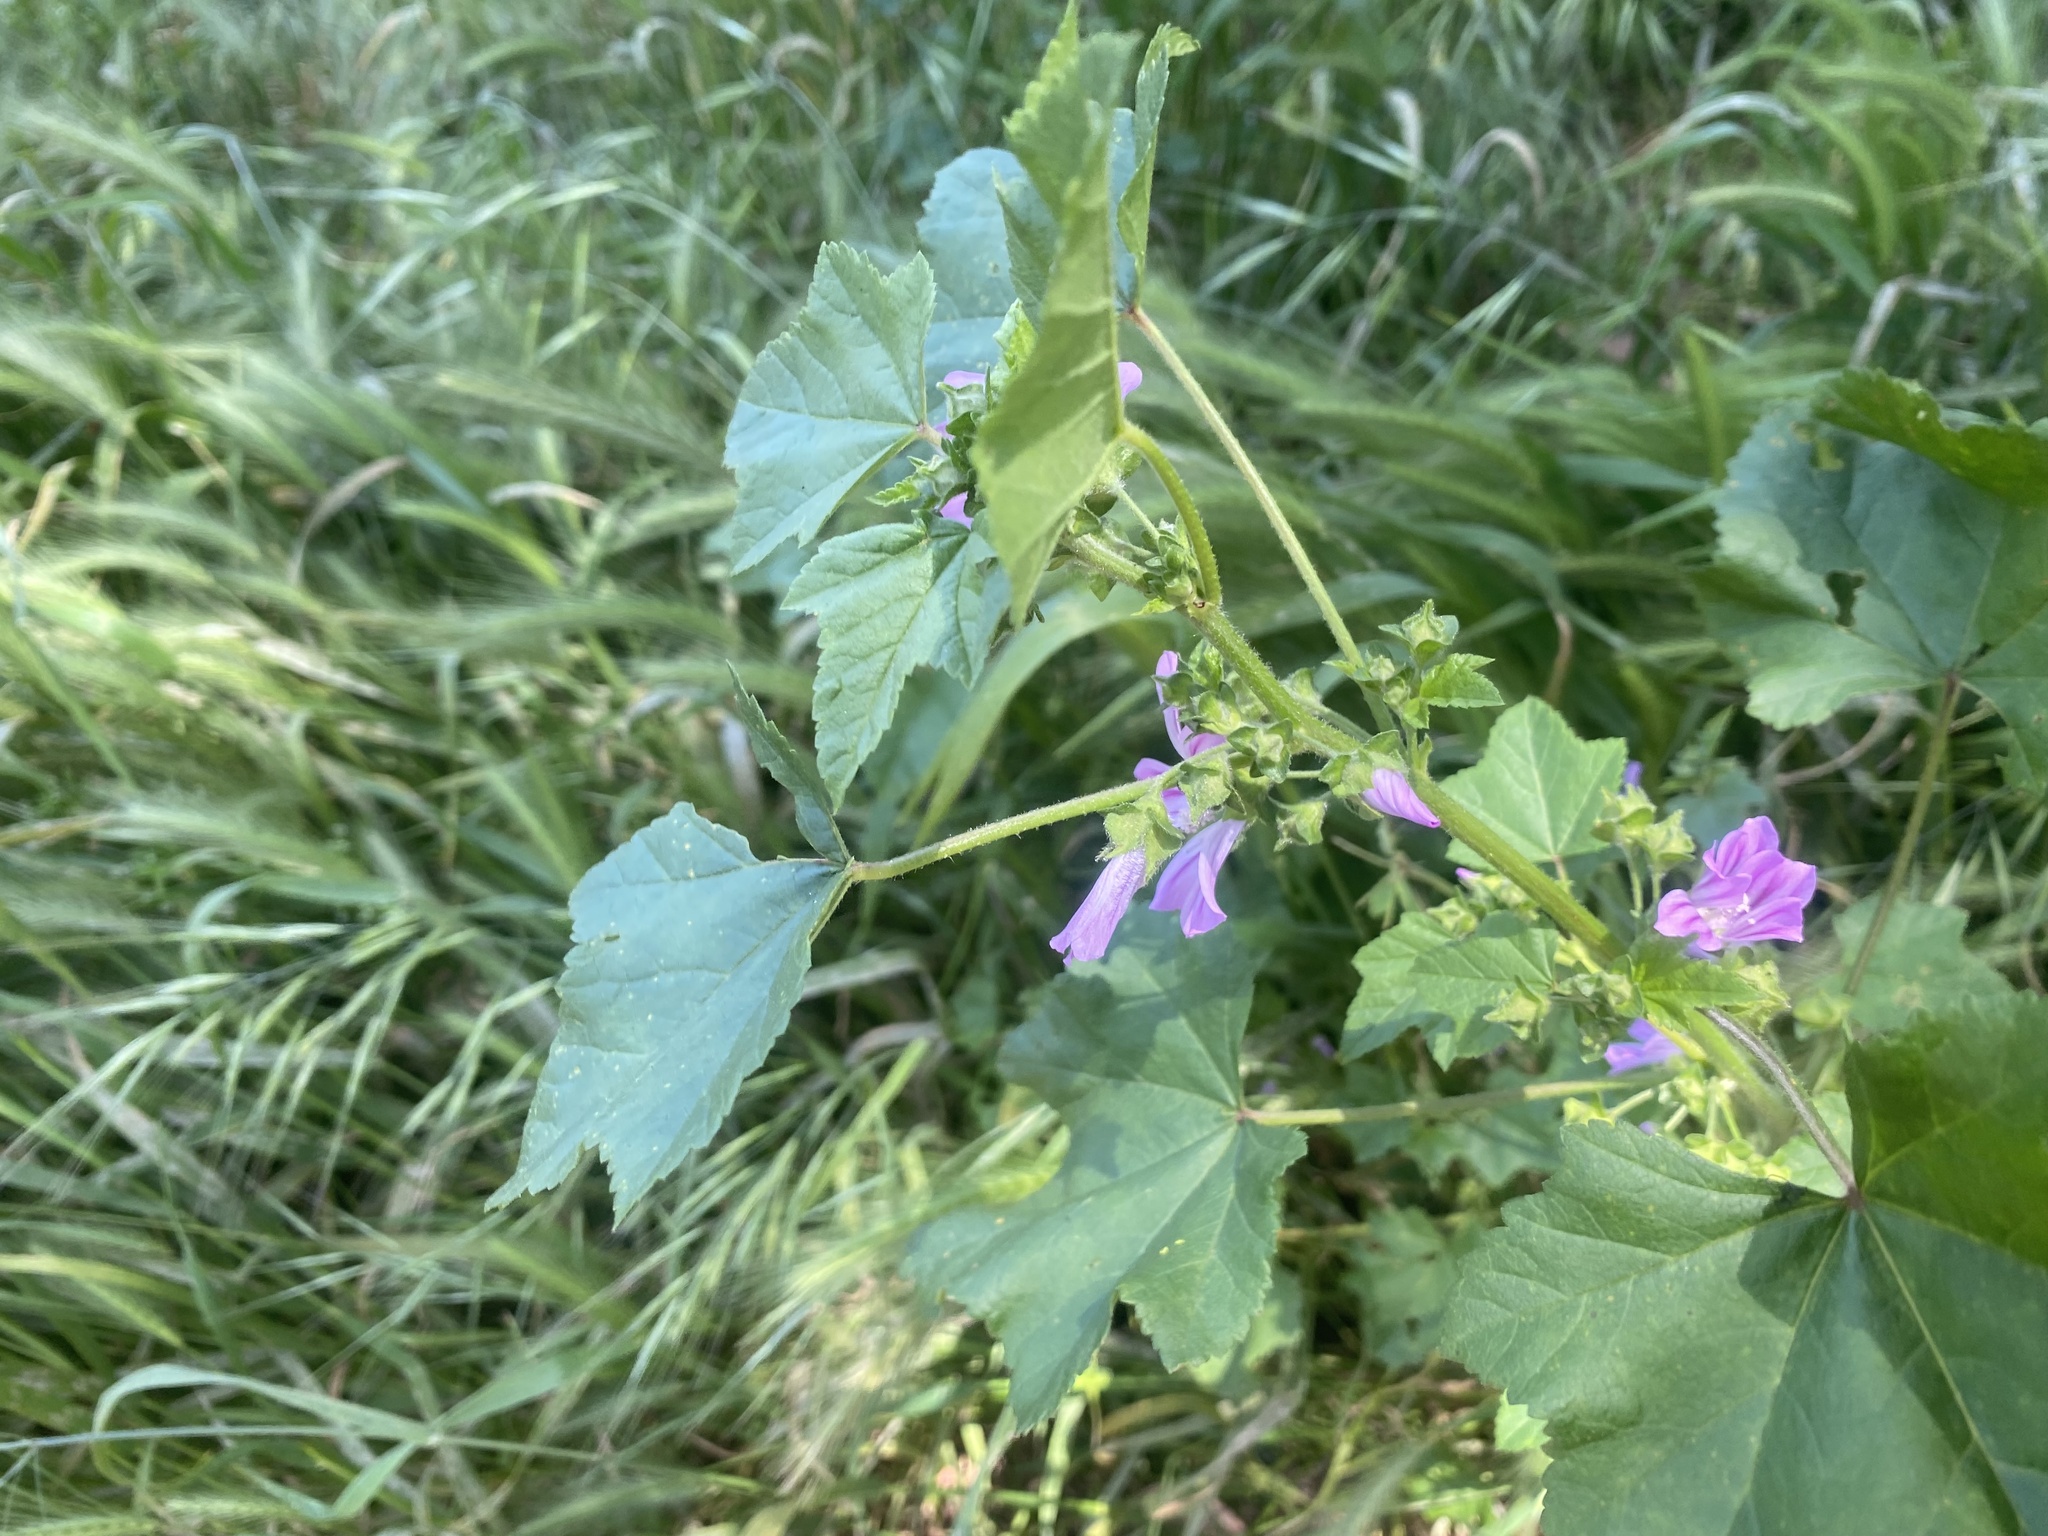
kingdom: Plantae
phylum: Tracheophyta
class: Magnoliopsida
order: Malvales
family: Malvaceae
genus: Malva
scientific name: Malva multiflora
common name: Cheeseweed
